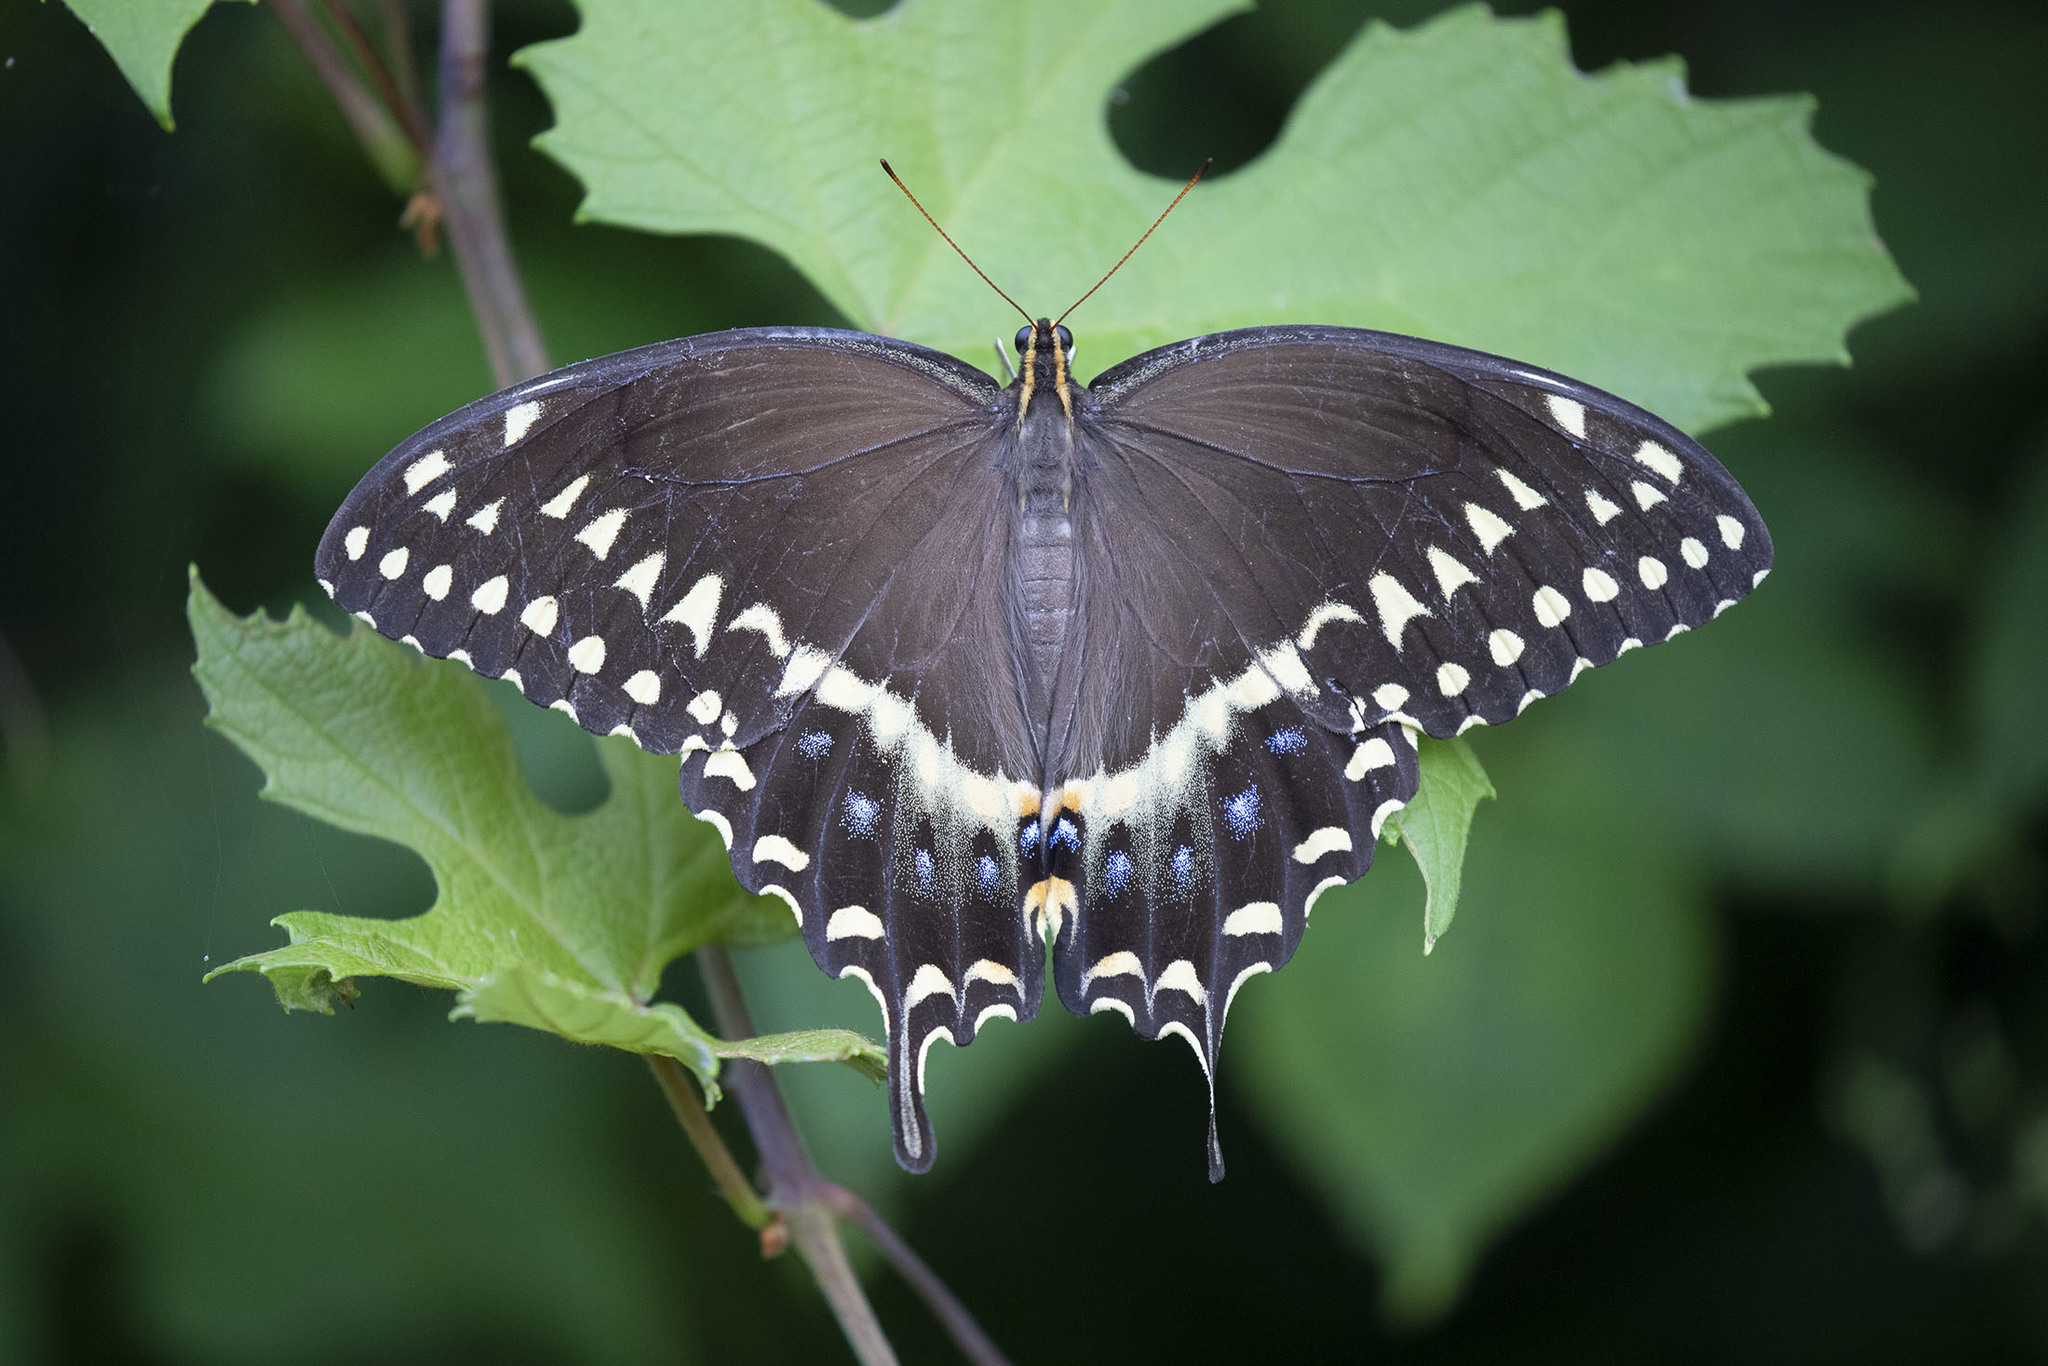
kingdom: Animalia
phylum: Arthropoda
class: Insecta
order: Lepidoptera
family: Papilionidae
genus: Papilio
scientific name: Papilio palamedes
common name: Palamedes swallowtail
